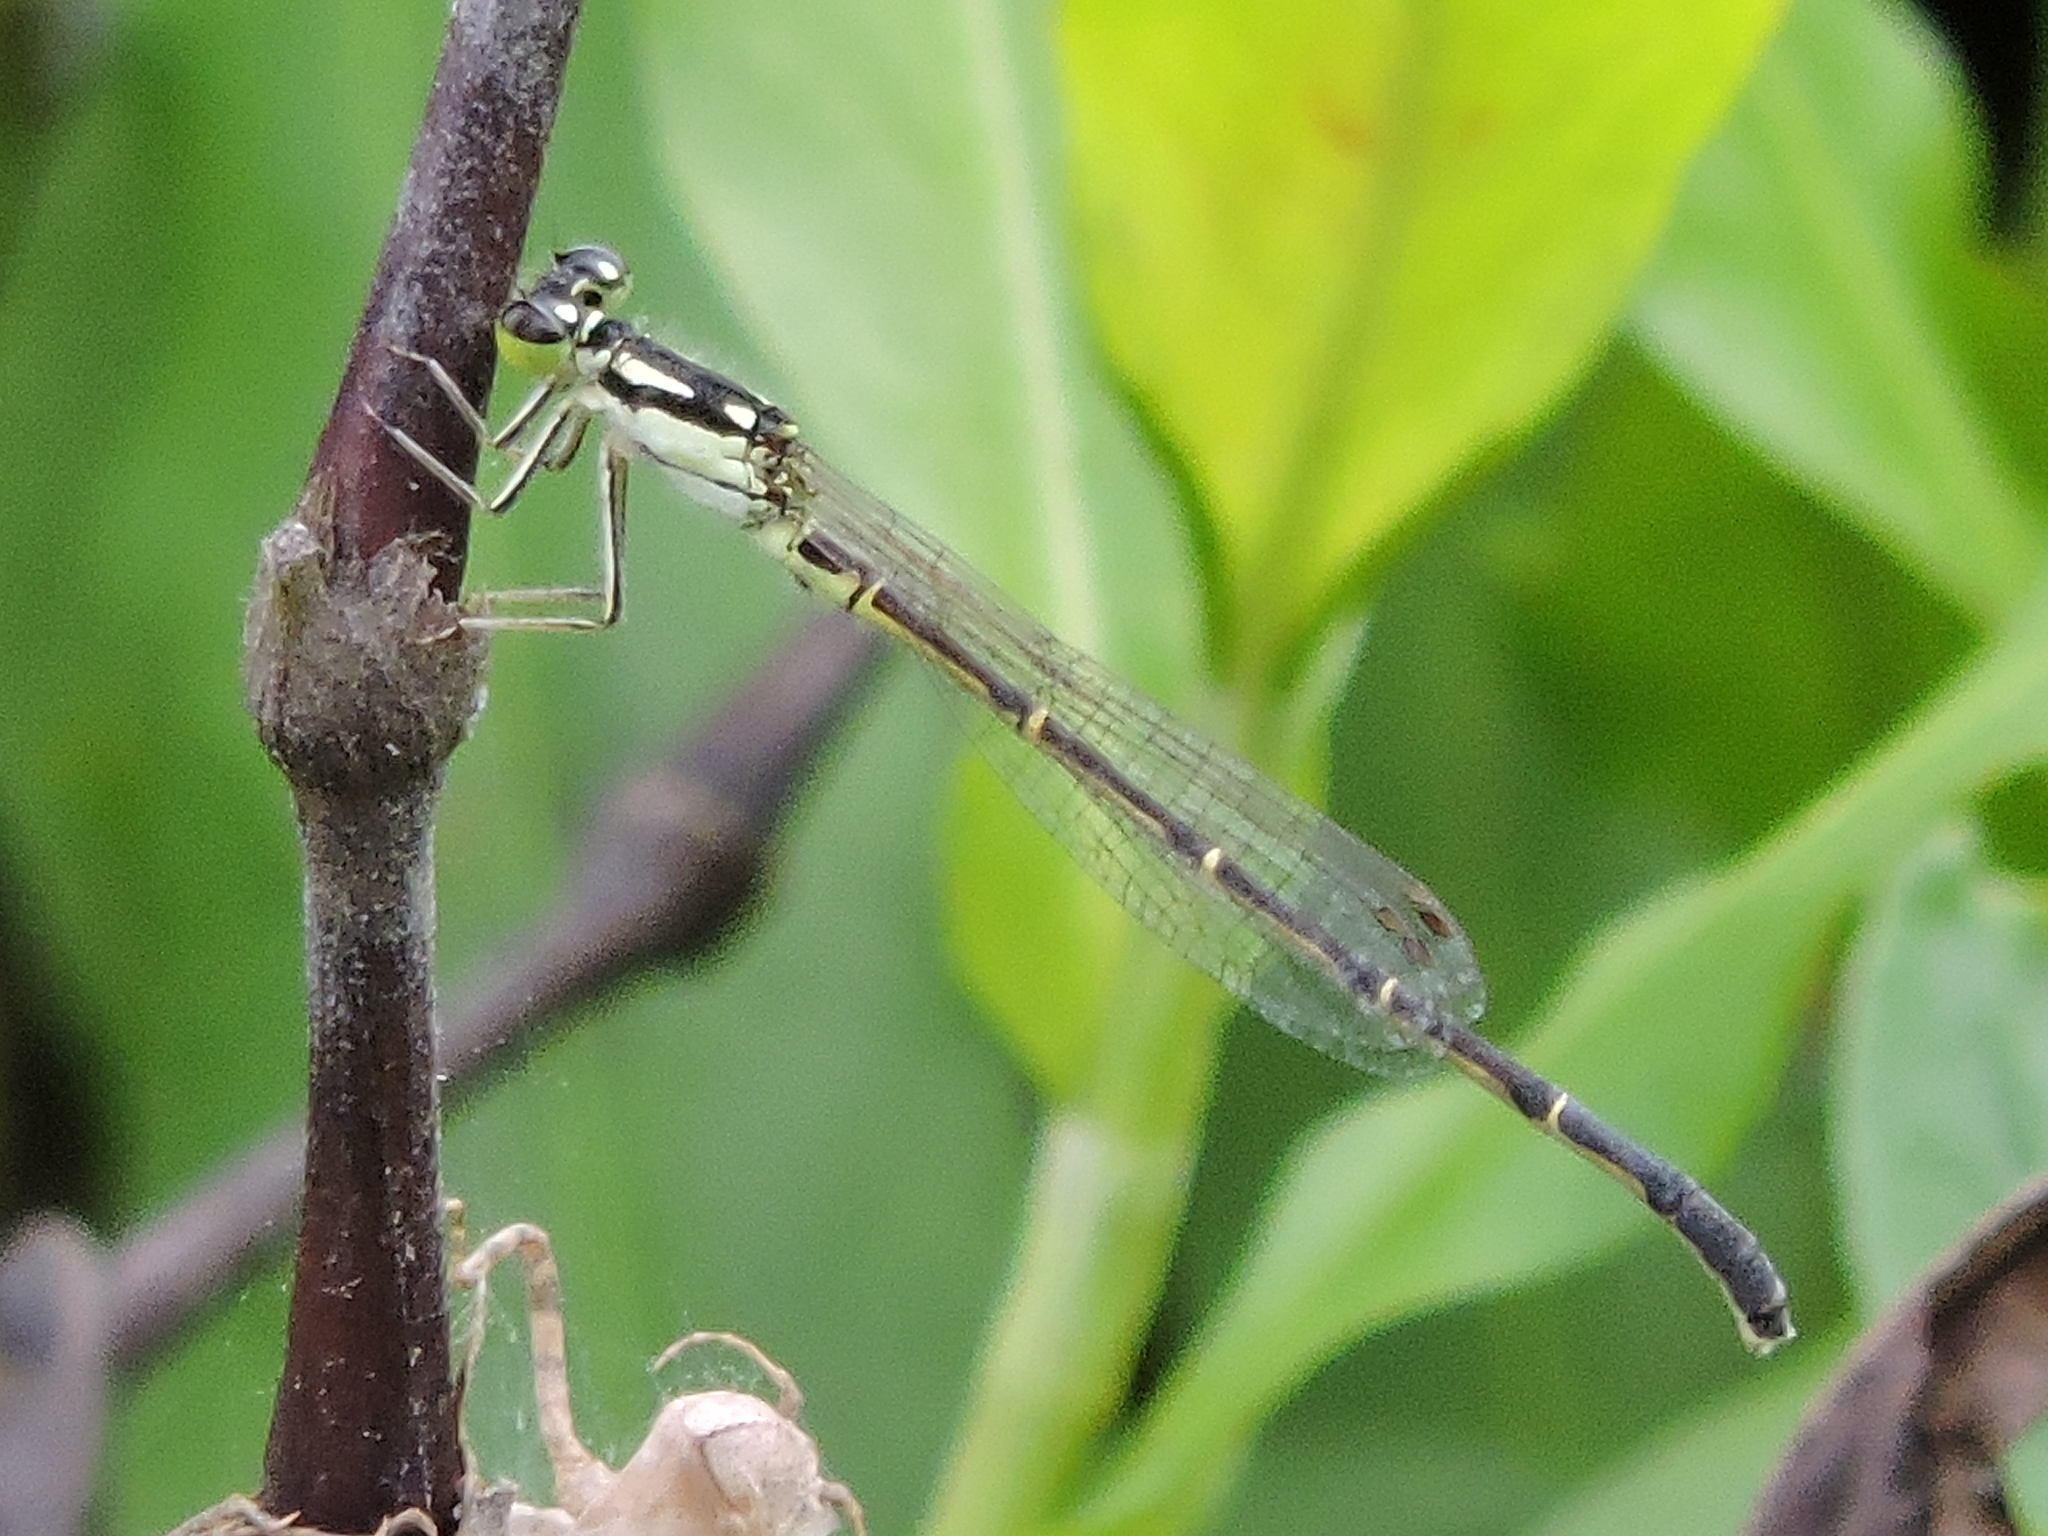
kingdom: Animalia
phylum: Arthropoda
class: Insecta
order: Odonata
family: Coenagrionidae
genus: Ischnura
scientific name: Ischnura posita
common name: Fragile forktail
